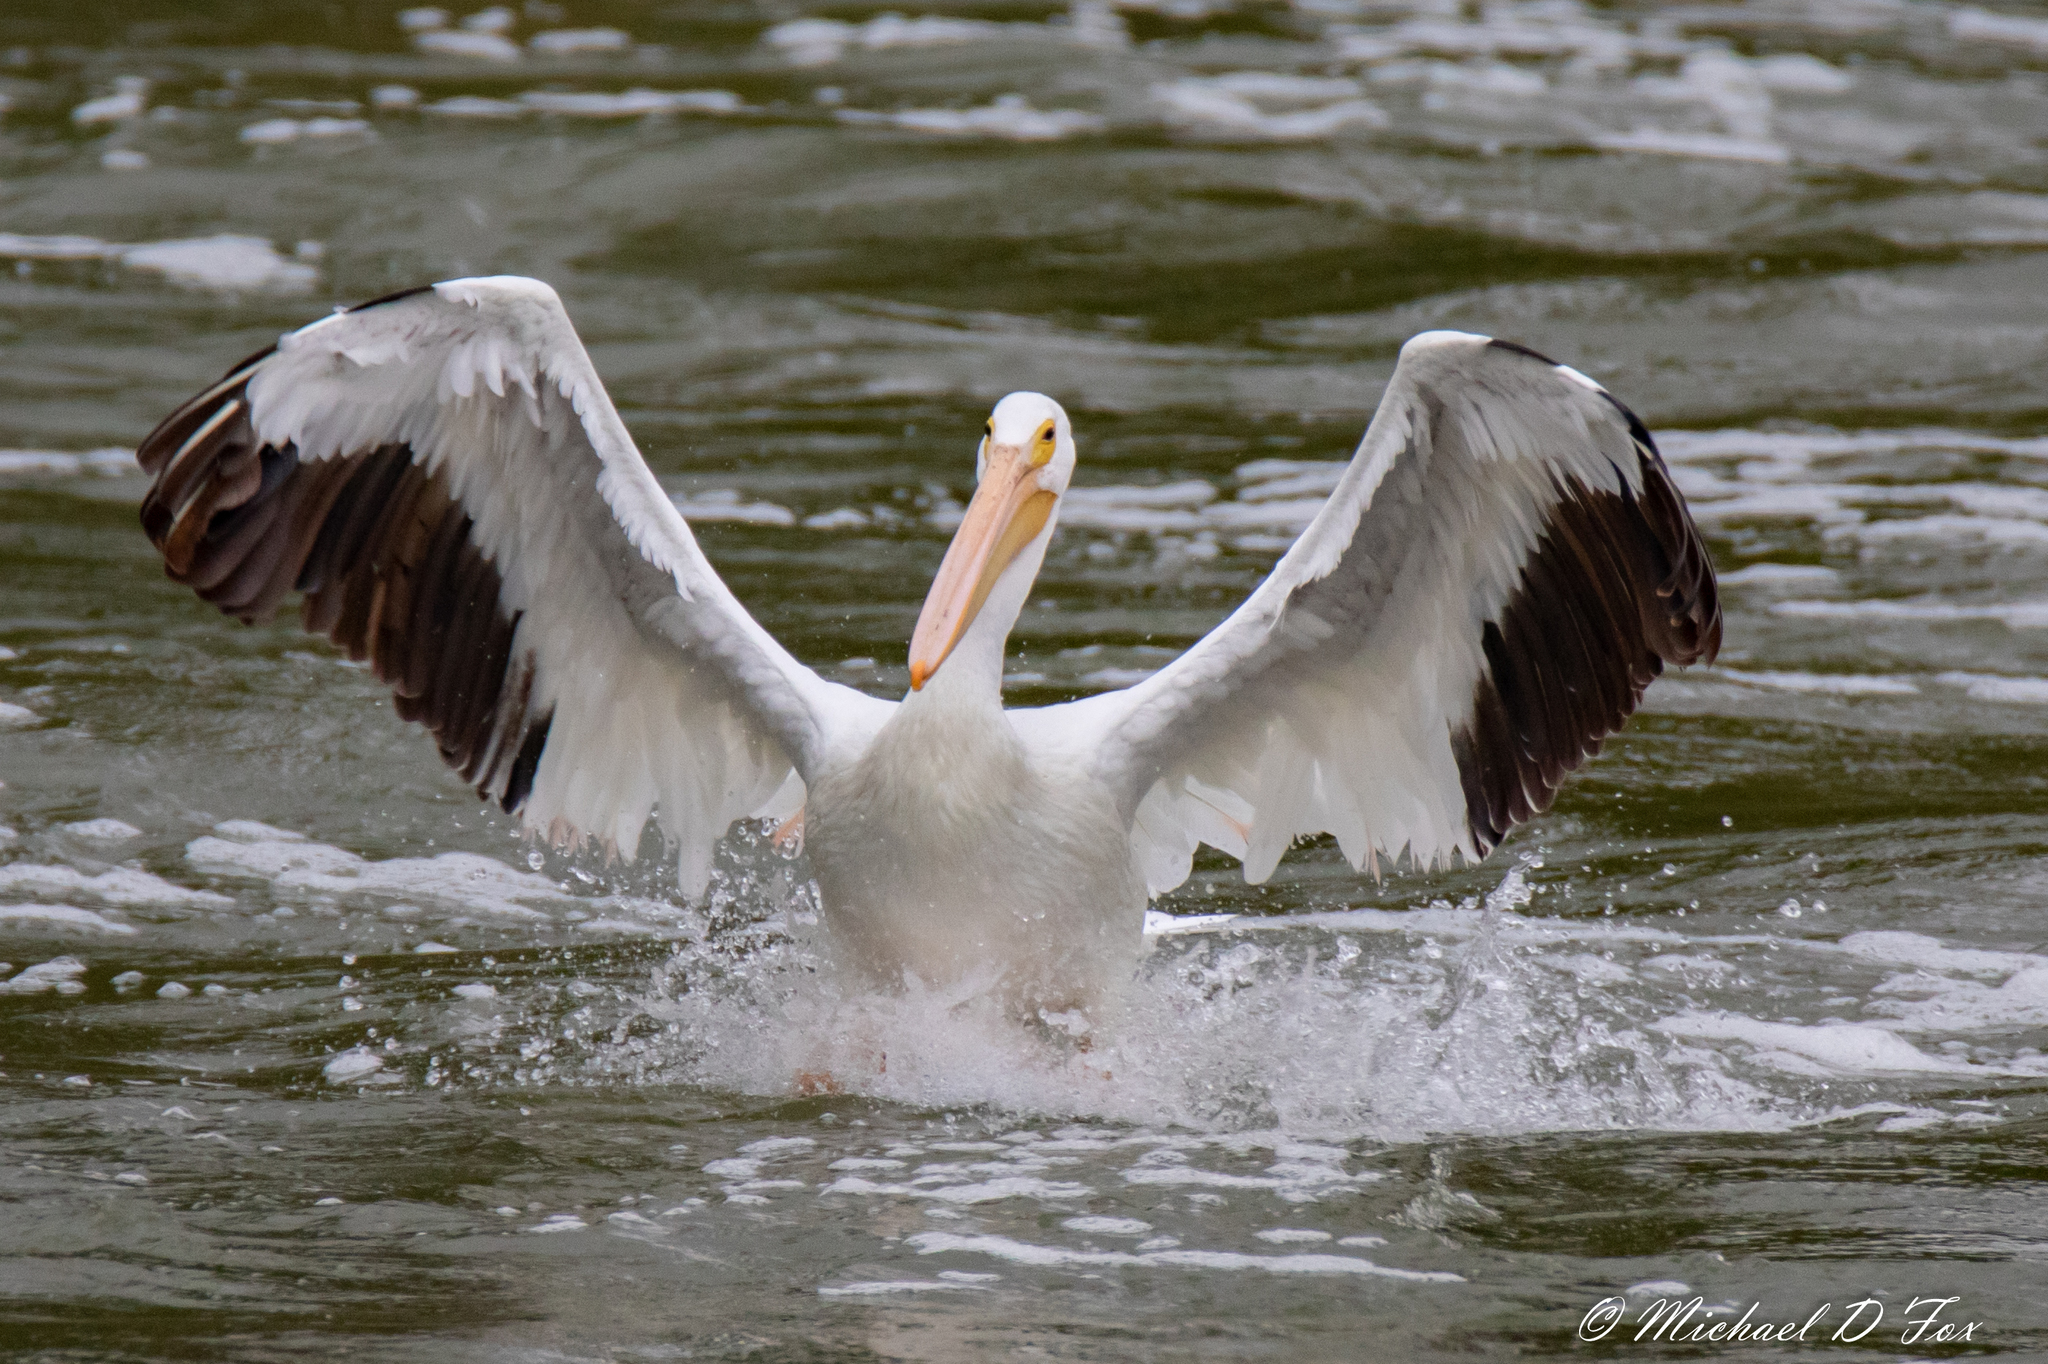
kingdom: Animalia
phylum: Chordata
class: Aves
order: Pelecaniformes
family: Pelecanidae
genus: Pelecanus
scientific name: Pelecanus erythrorhynchos
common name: American white pelican
